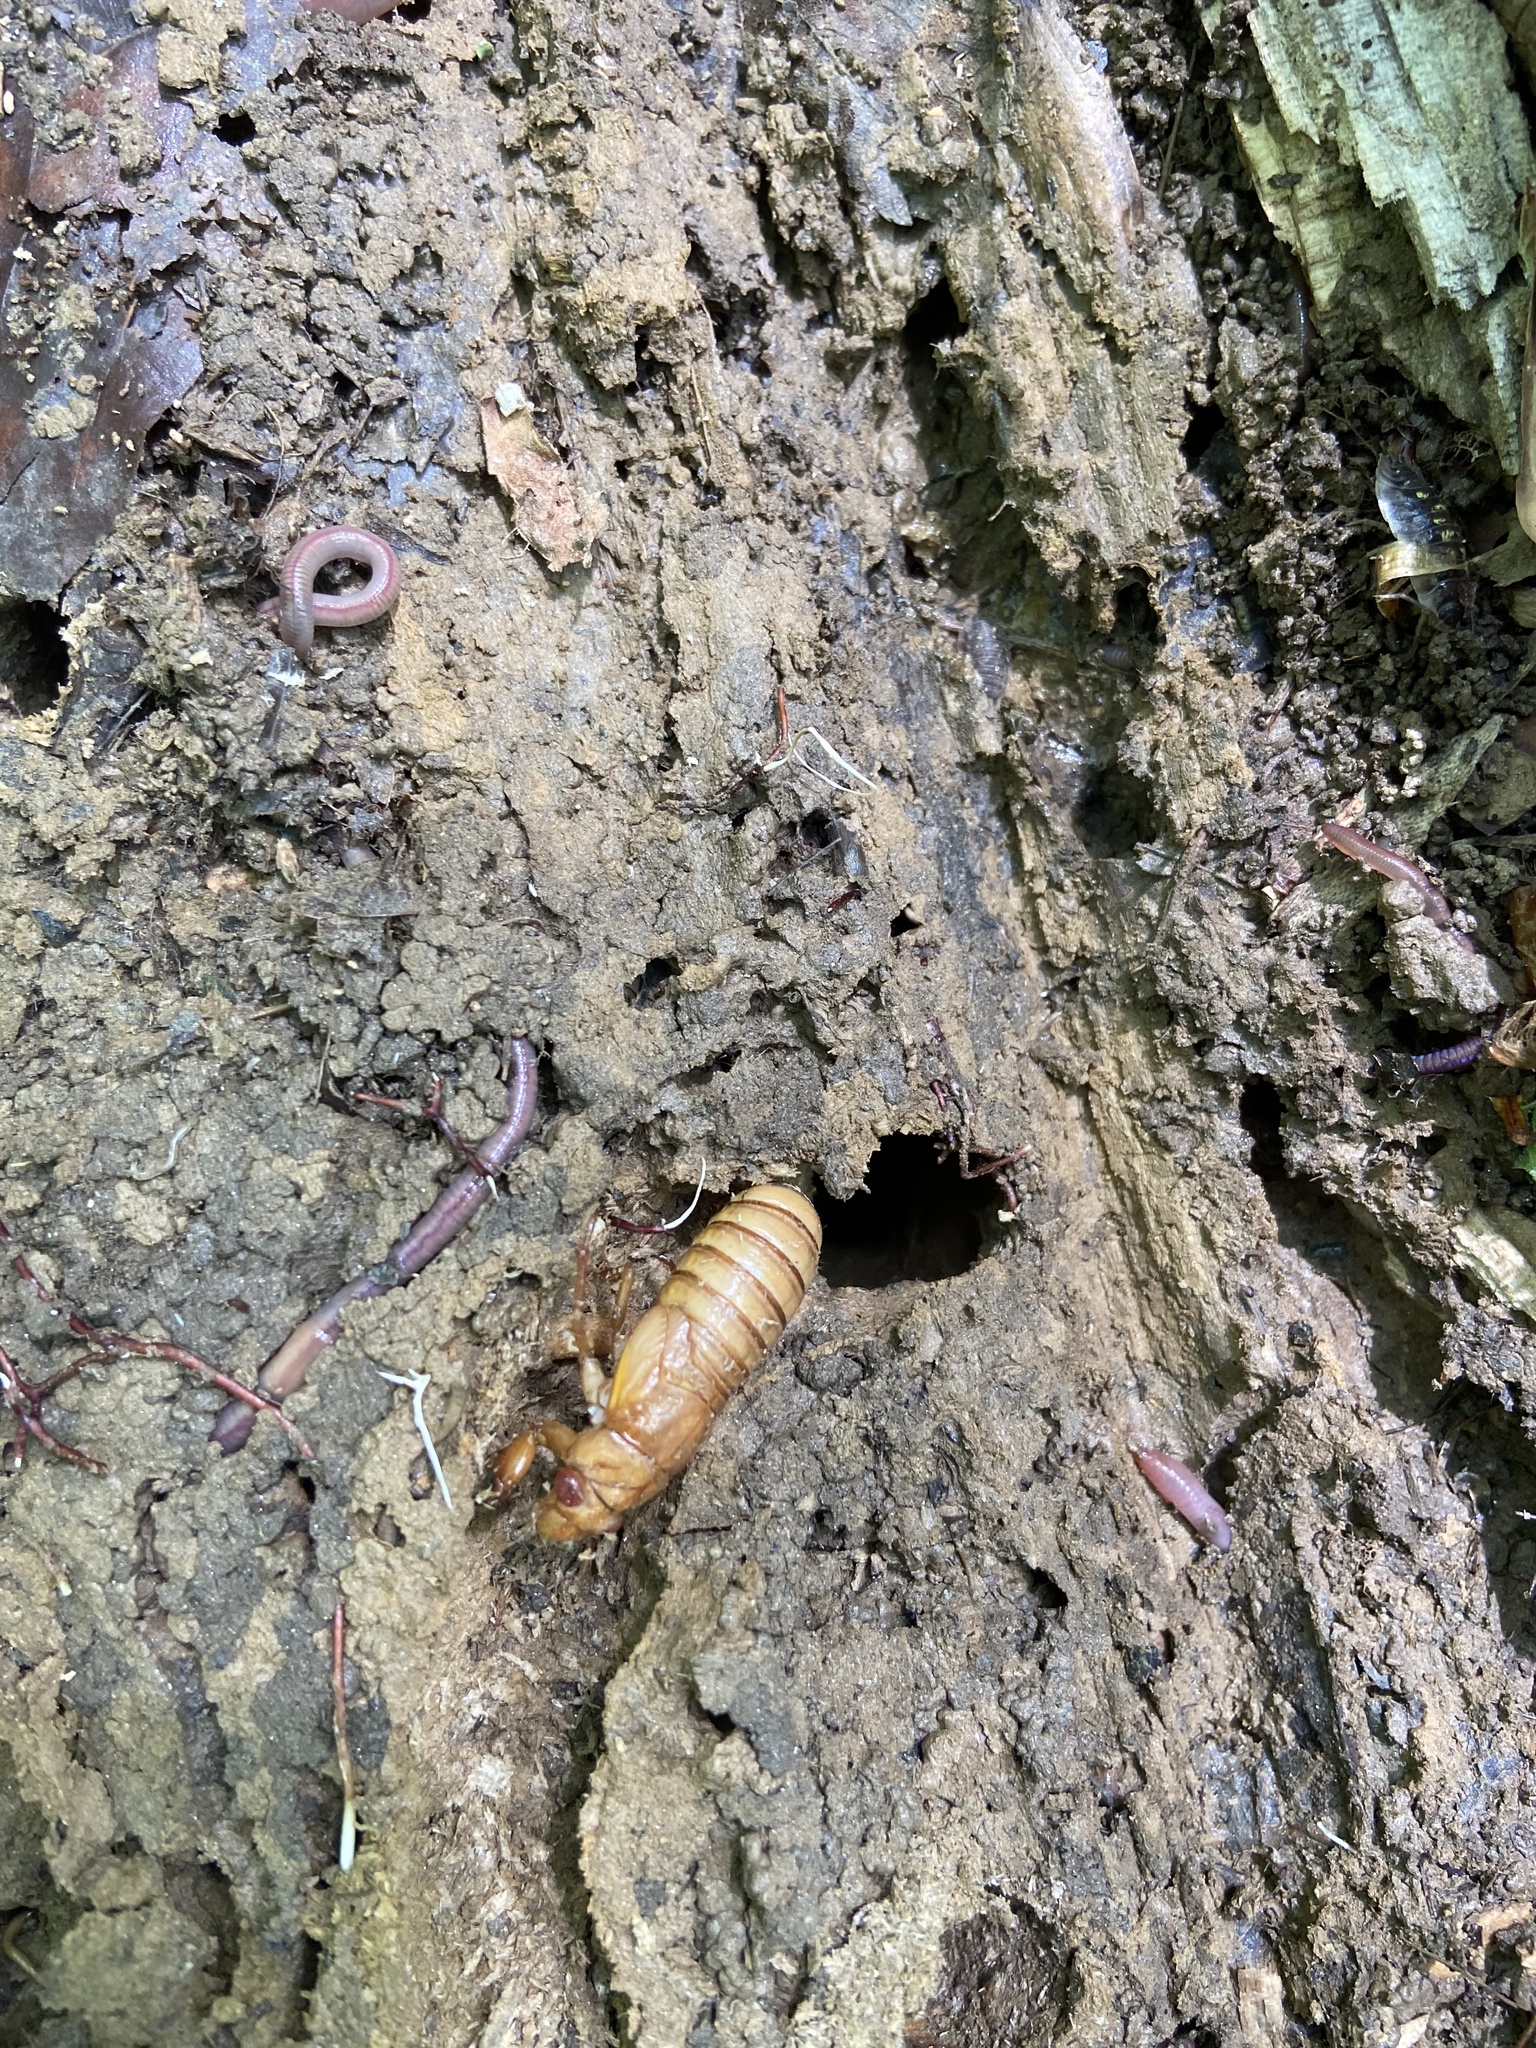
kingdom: Animalia
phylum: Arthropoda
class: Insecta
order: Hemiptera
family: Cicadidae
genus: Magicicada
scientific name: Magicicada
